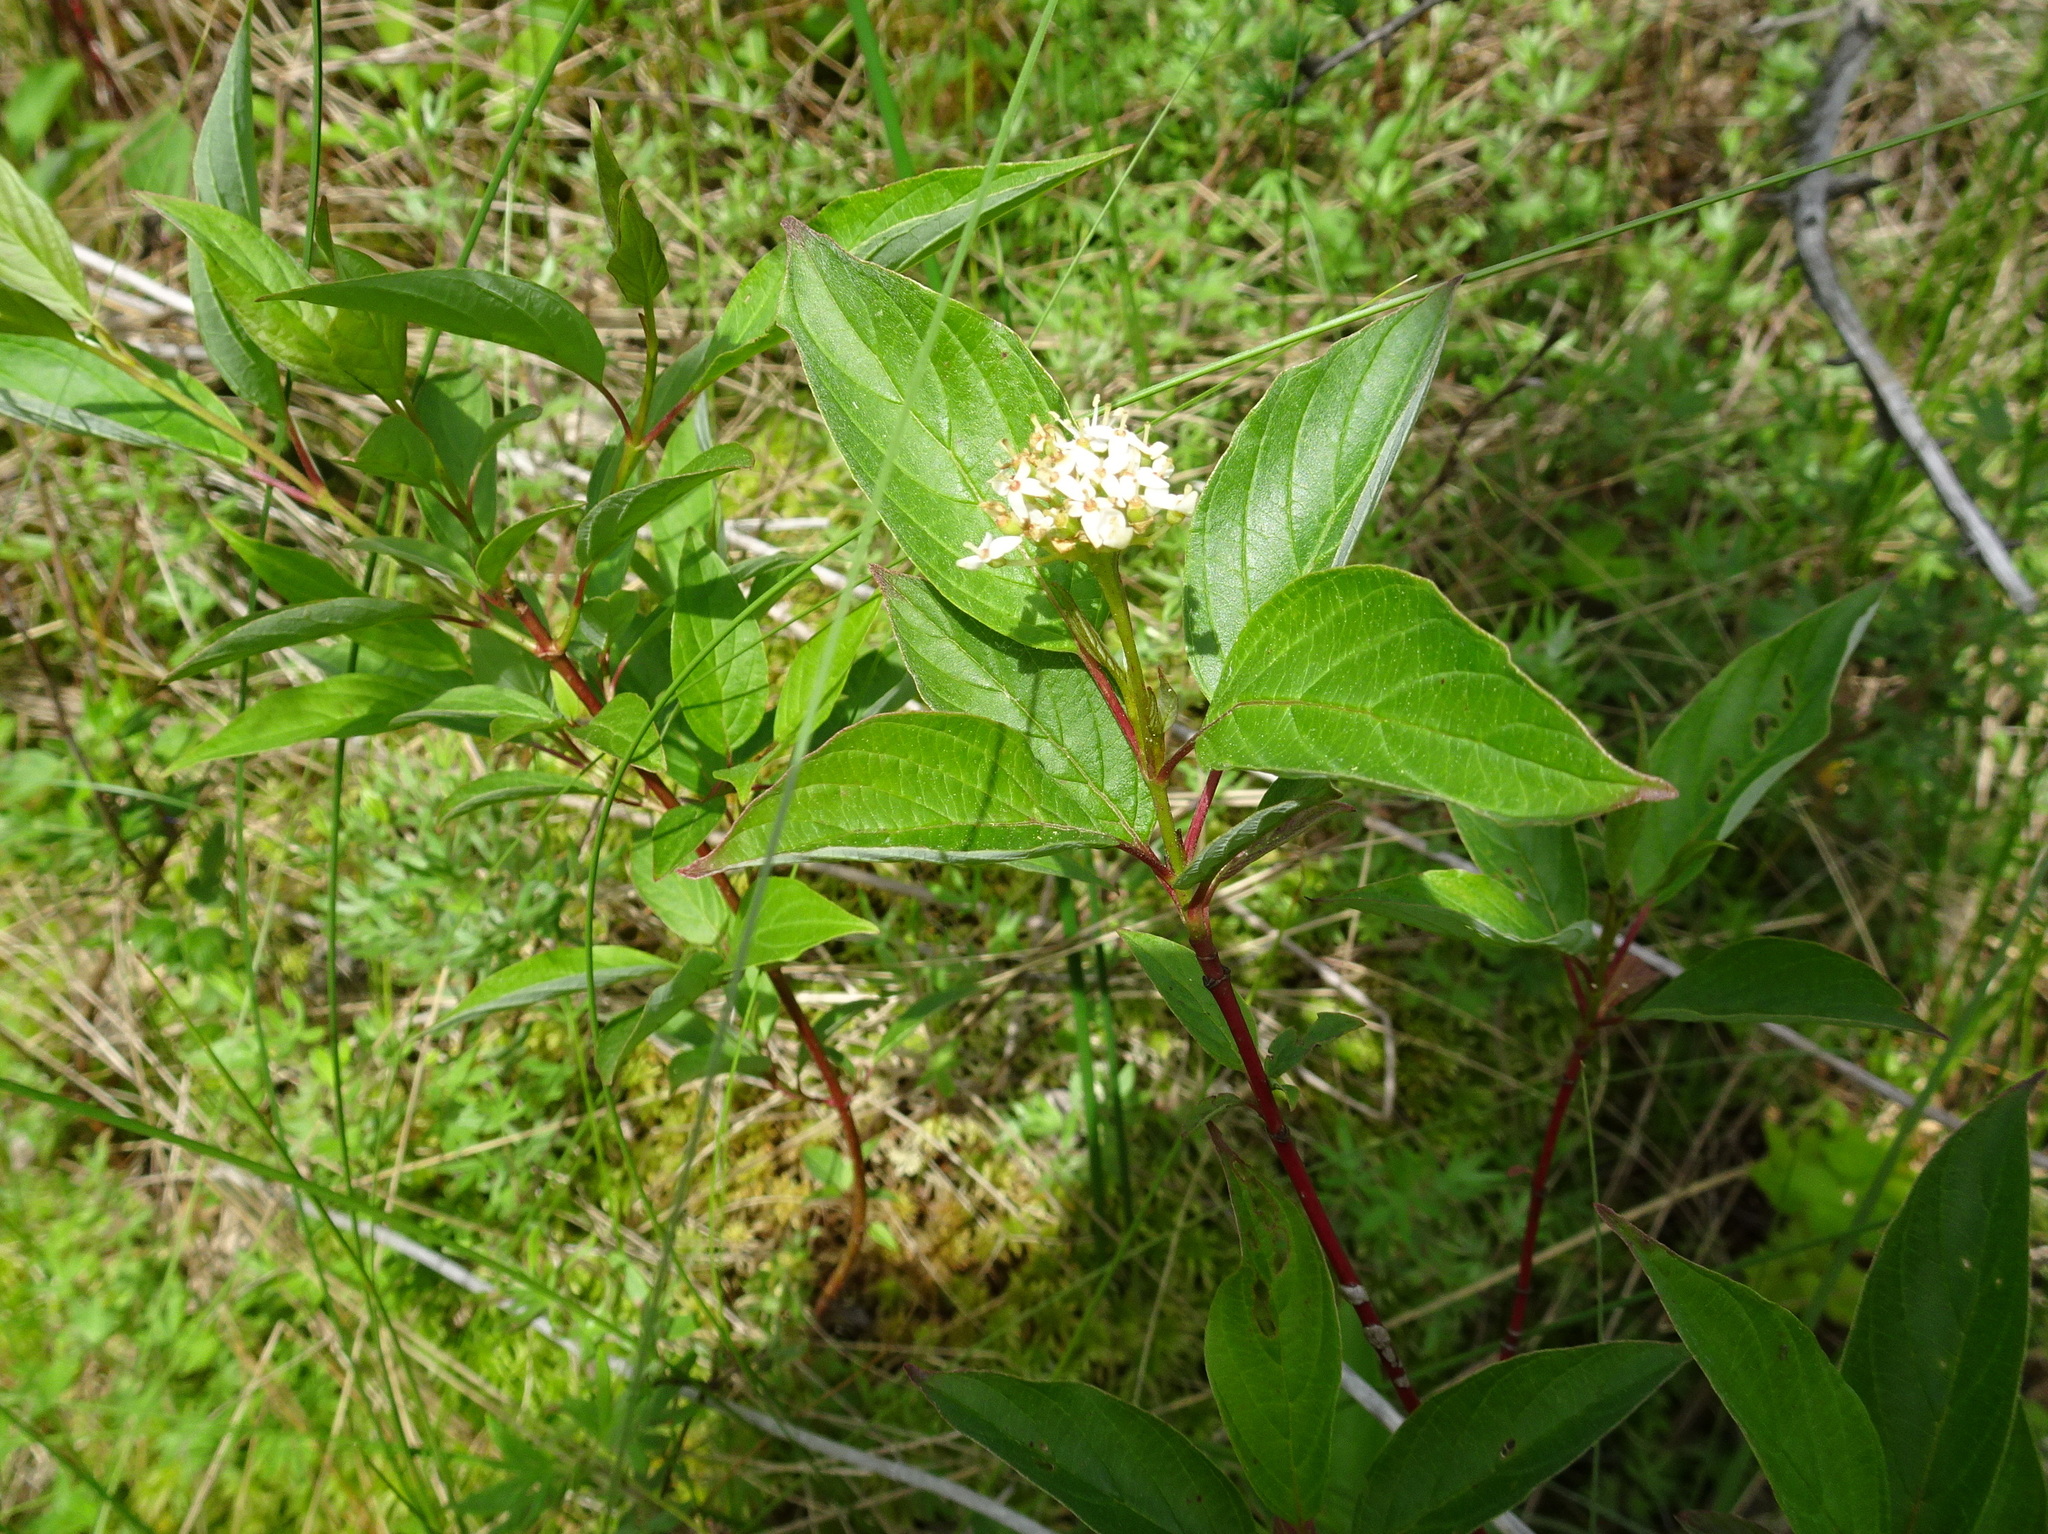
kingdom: Plantae
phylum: Tracheophyta
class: Magnoliopsida
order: Cornales
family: Cornaceae
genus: Cornus
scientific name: Cornus sericea
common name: Red-osier dogwood
